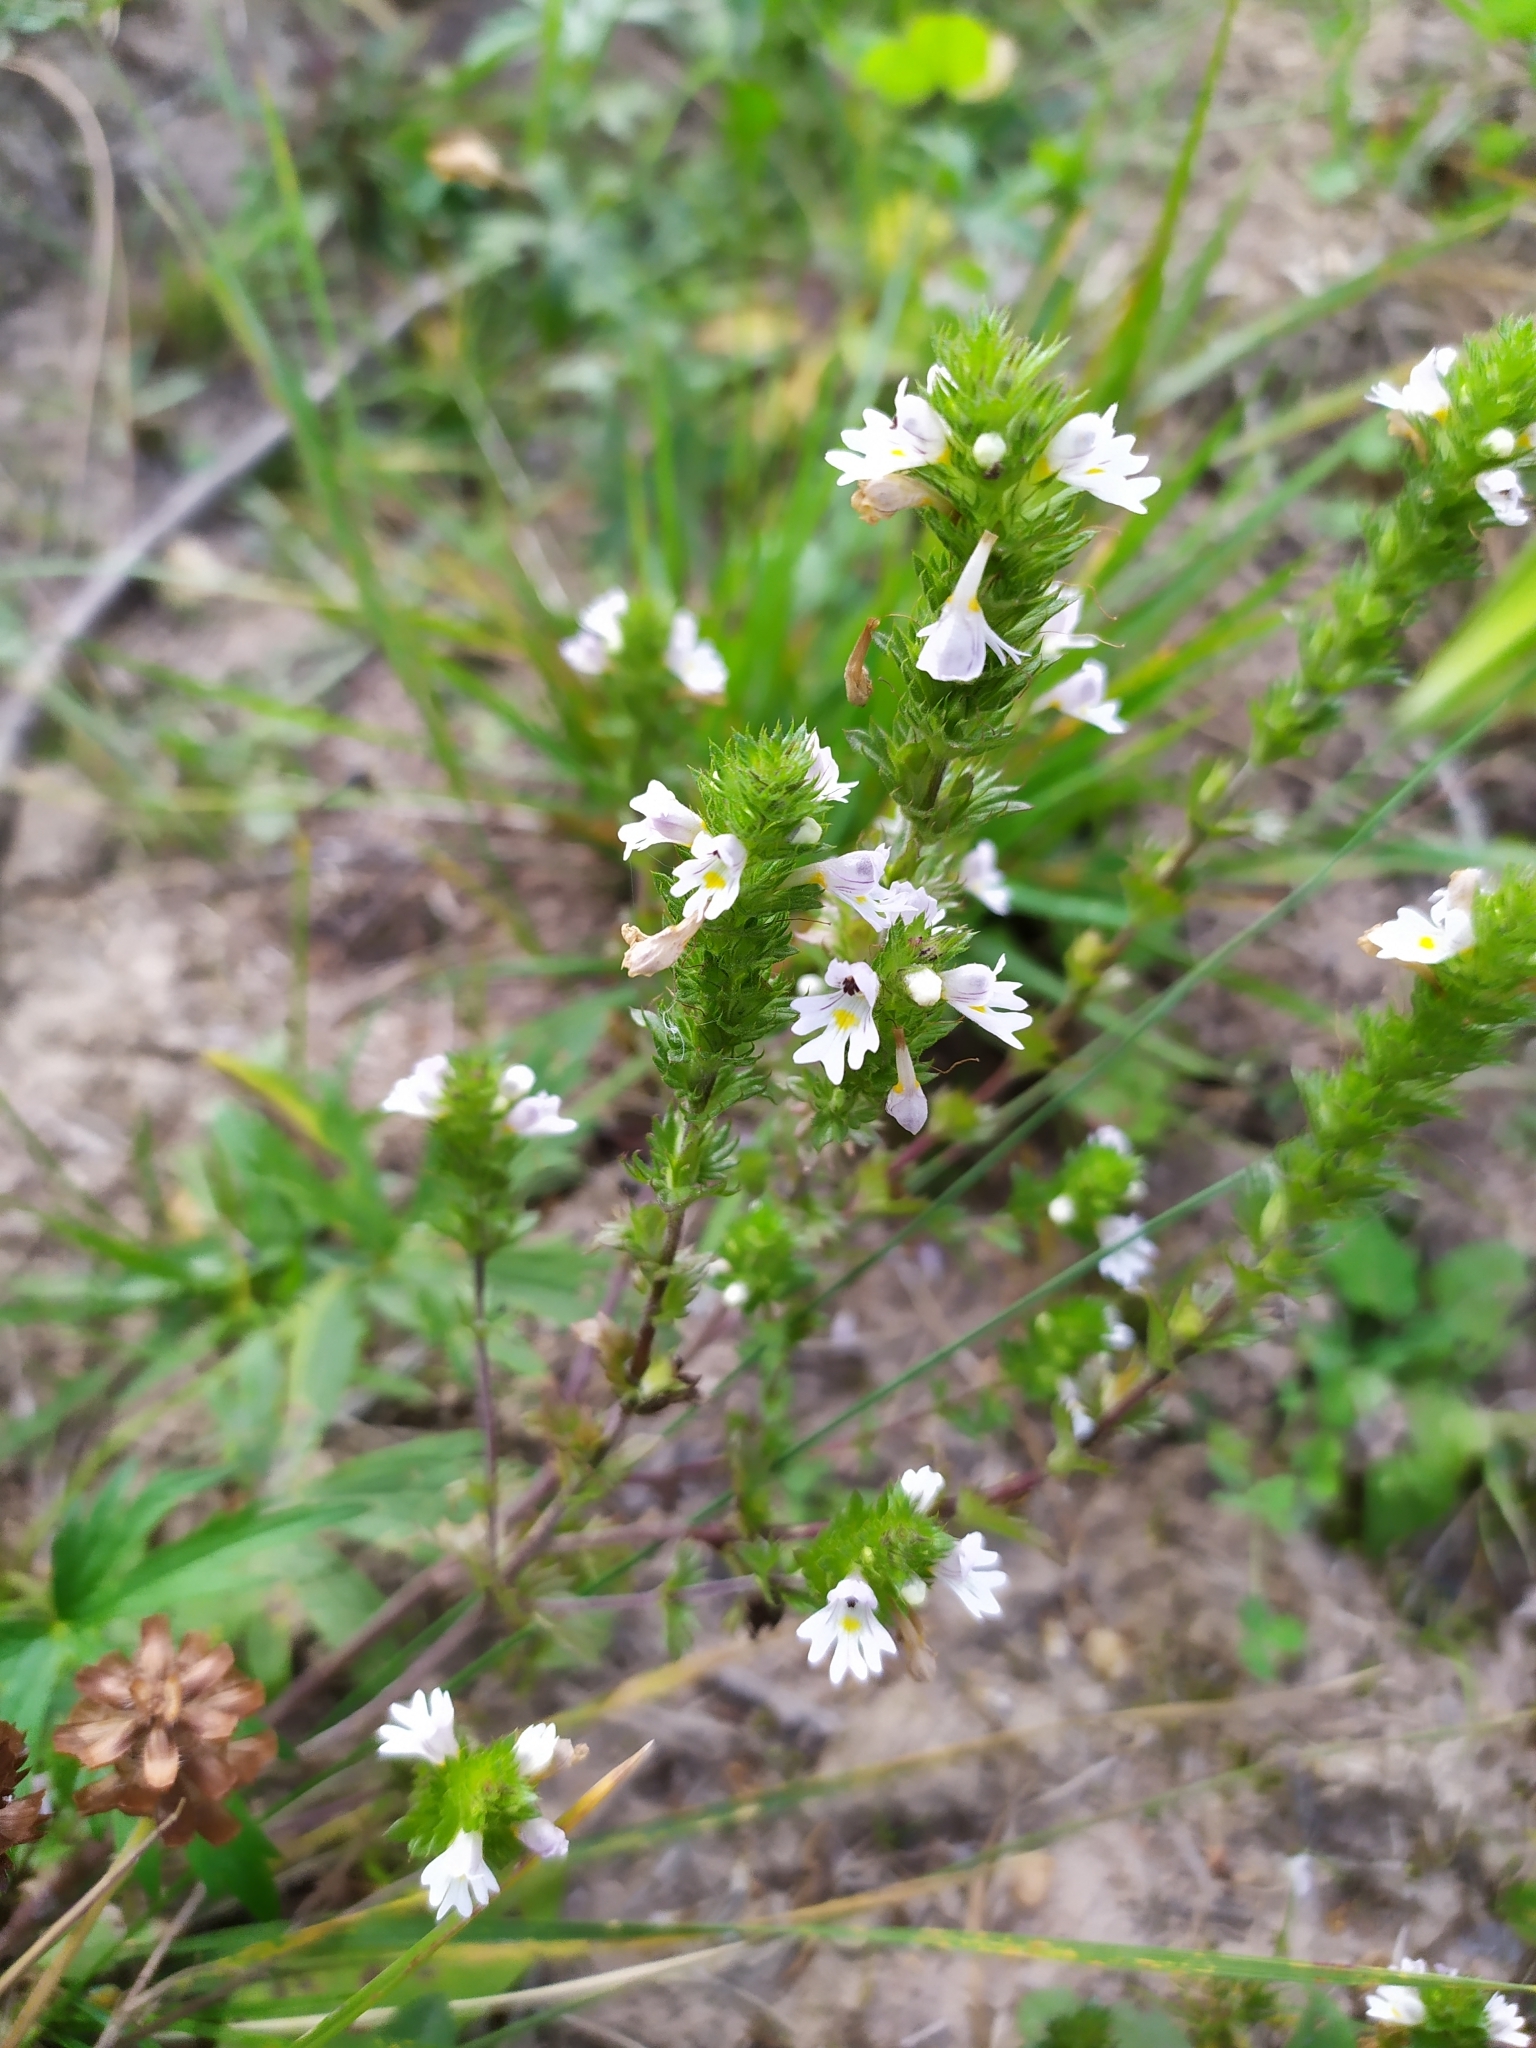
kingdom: Plantae
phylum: Tracheophyta
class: Magnoliopsida
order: Lamiales
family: Orobanchaceae
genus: Euphrasia
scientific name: Euphrasia stricta
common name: Drug eyebright
